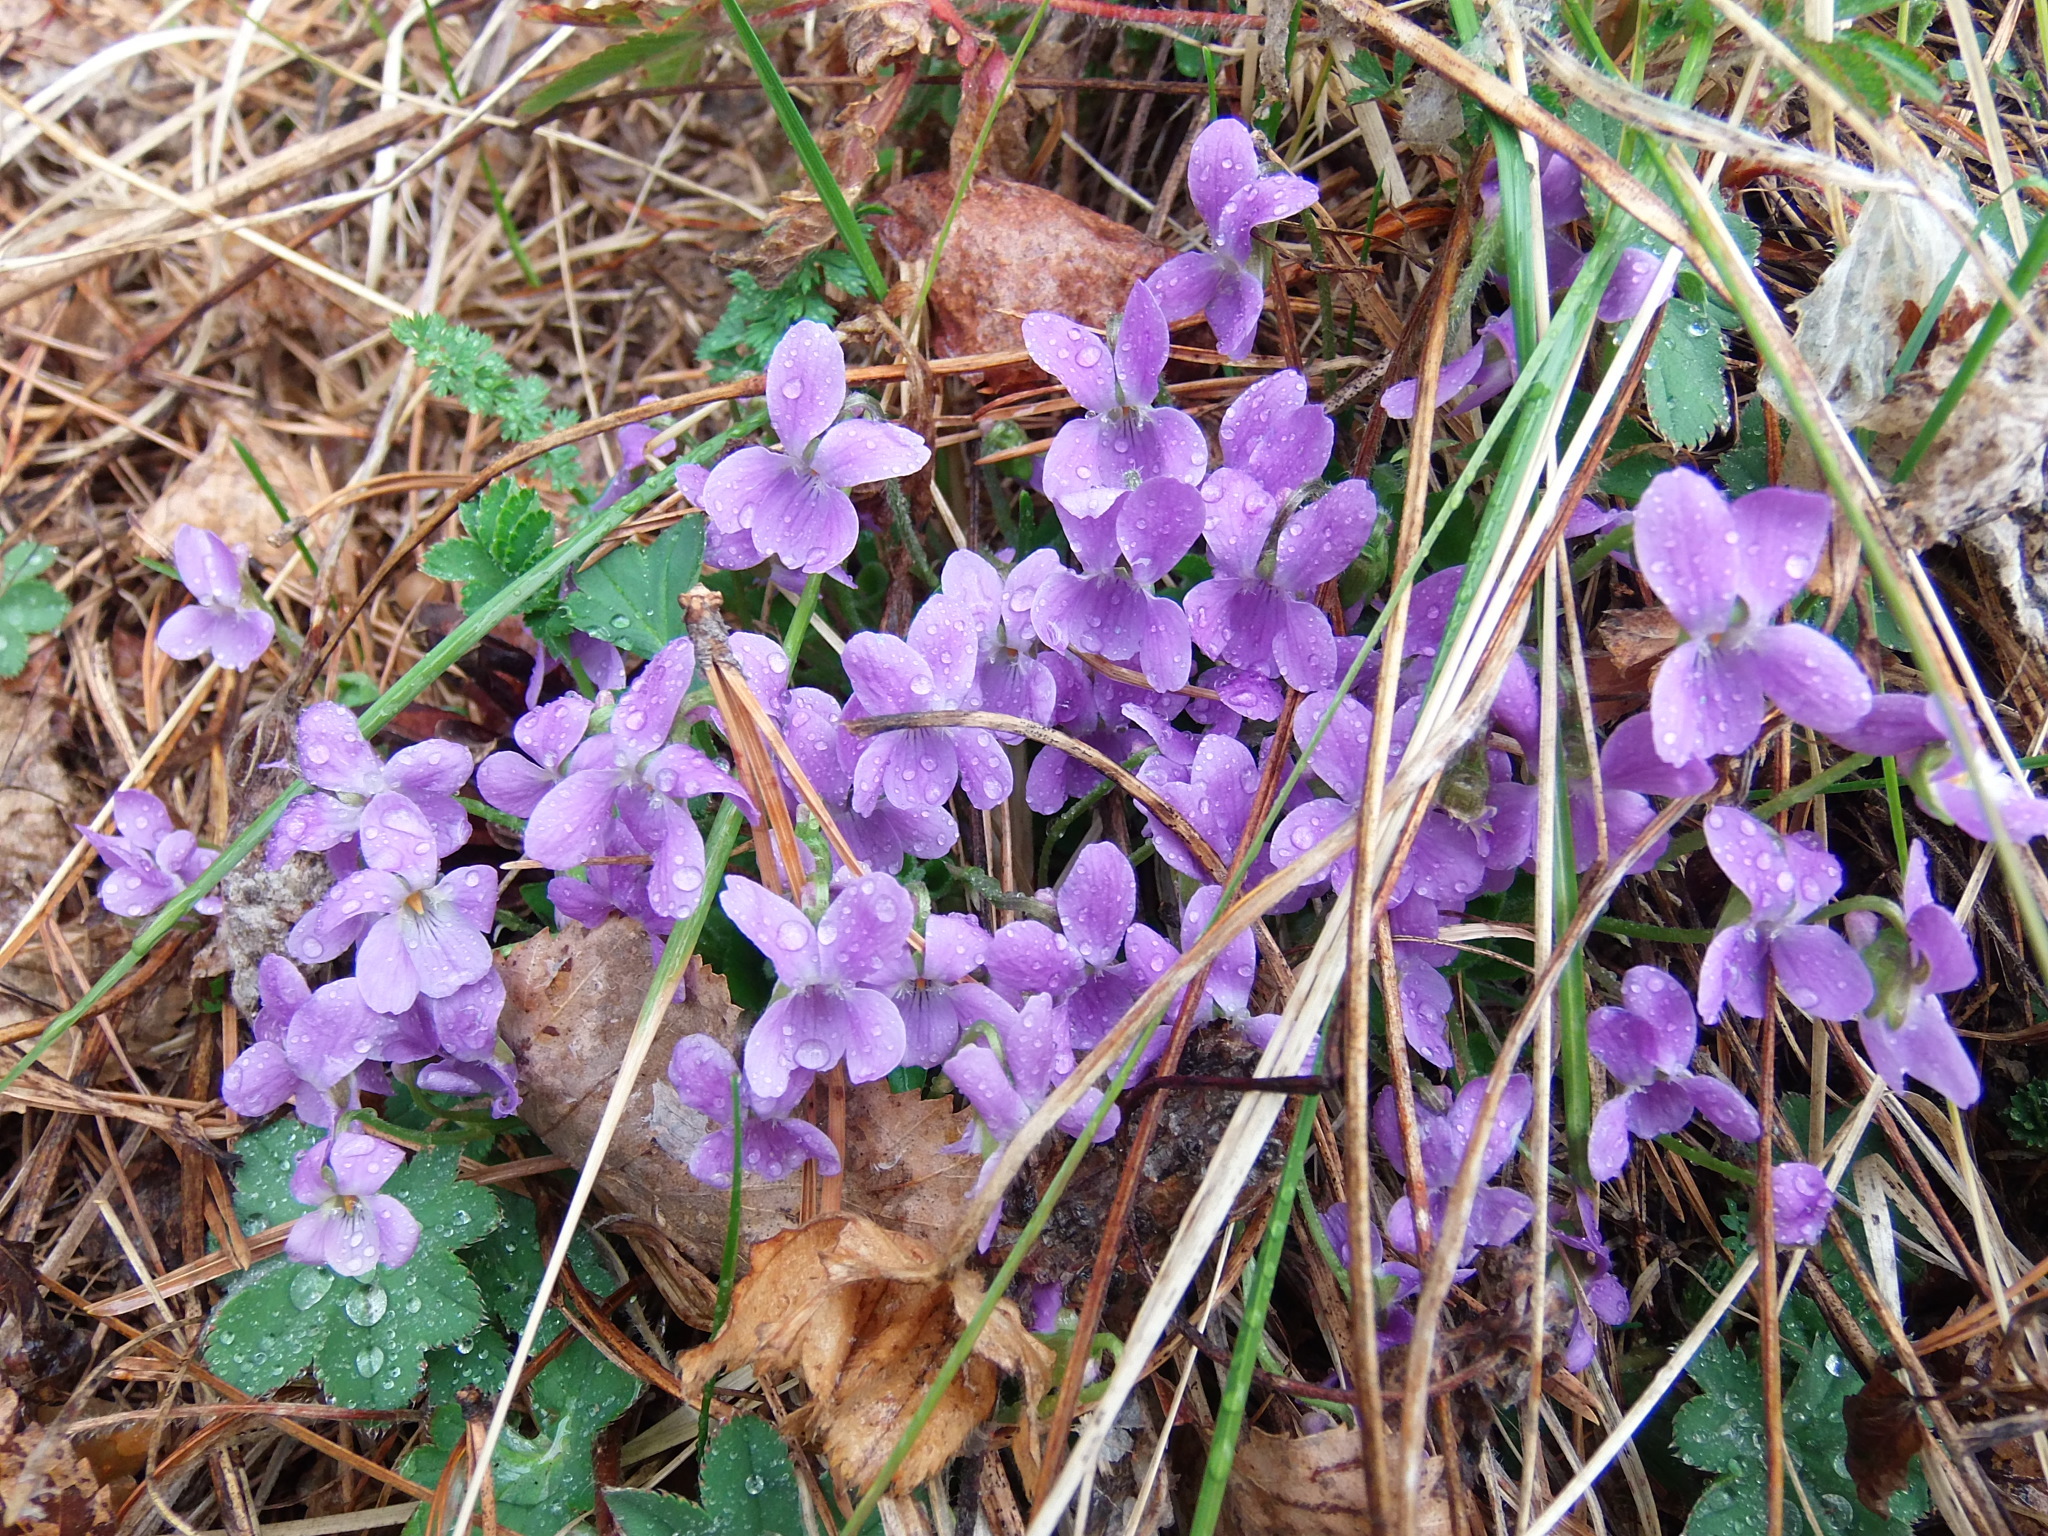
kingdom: Plantae
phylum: Tracheophyta
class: Magnoliopsida
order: Malpighiales
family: Violaceae
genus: Viola
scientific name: Viola hirta
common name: Hairy violet
